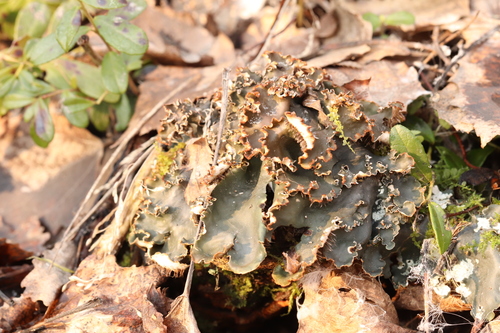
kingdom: Fungi
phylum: Ascomycota
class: Lecanoromycetes
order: Peltigerales
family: Peltigeraceae
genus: Peltigera
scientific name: Peltigera
